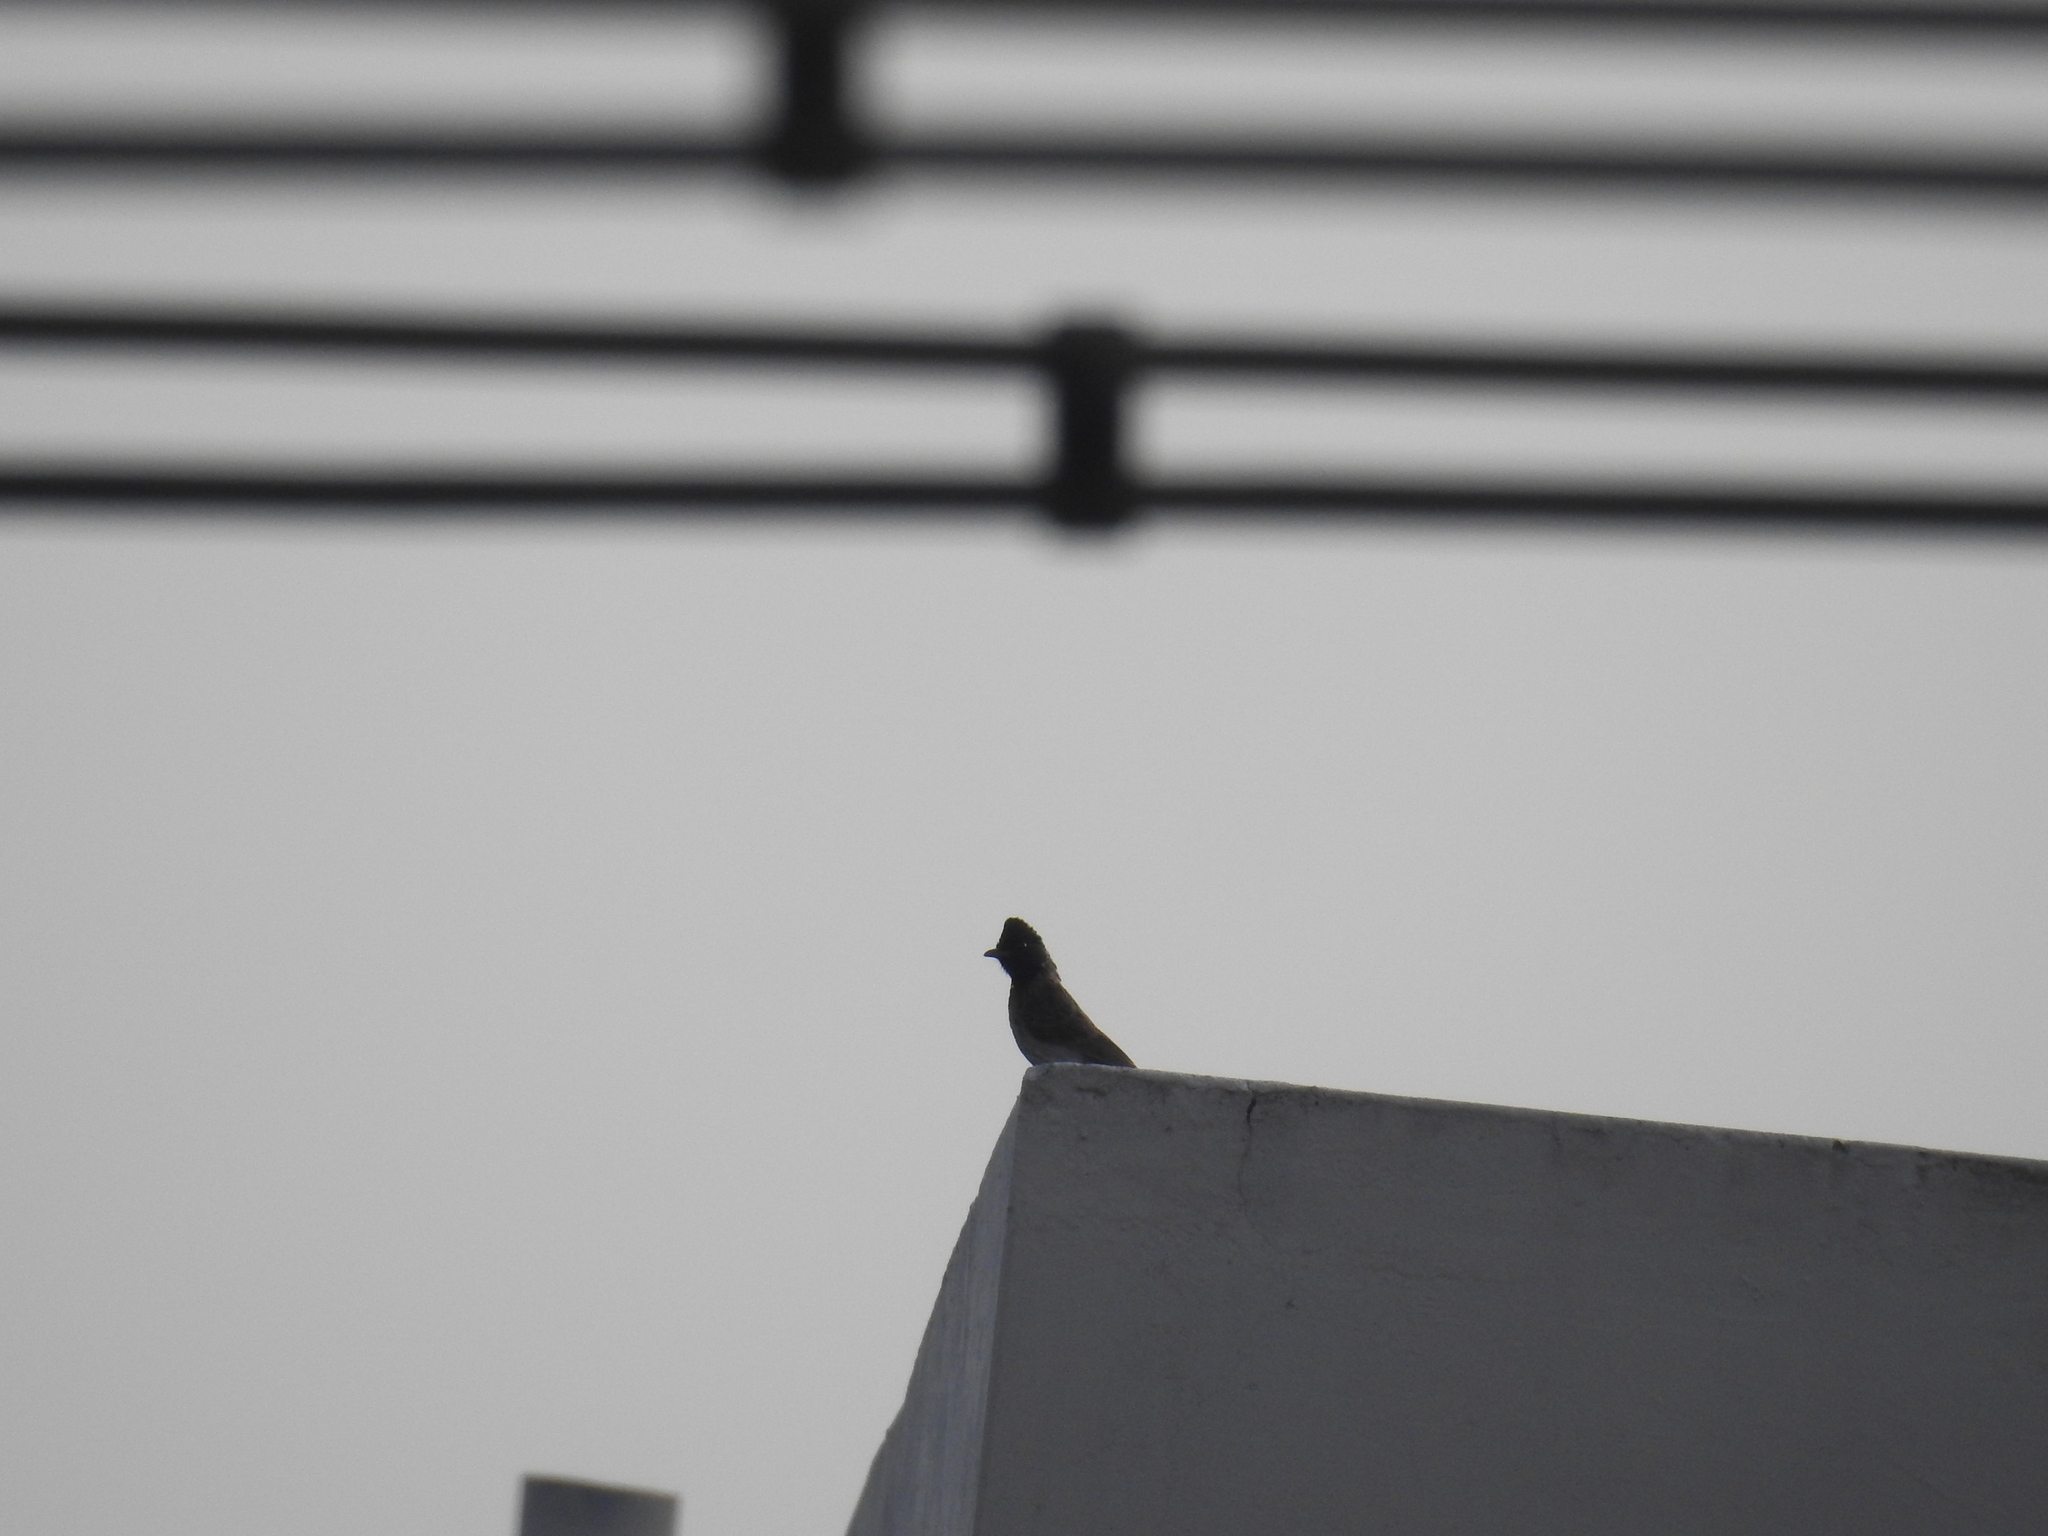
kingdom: Animalia
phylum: Chordata
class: Aves
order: Passeriformes
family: Pycnonotidae
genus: Pycnonotus
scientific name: Pycnonotus cafer
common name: Red-vented bulbul
